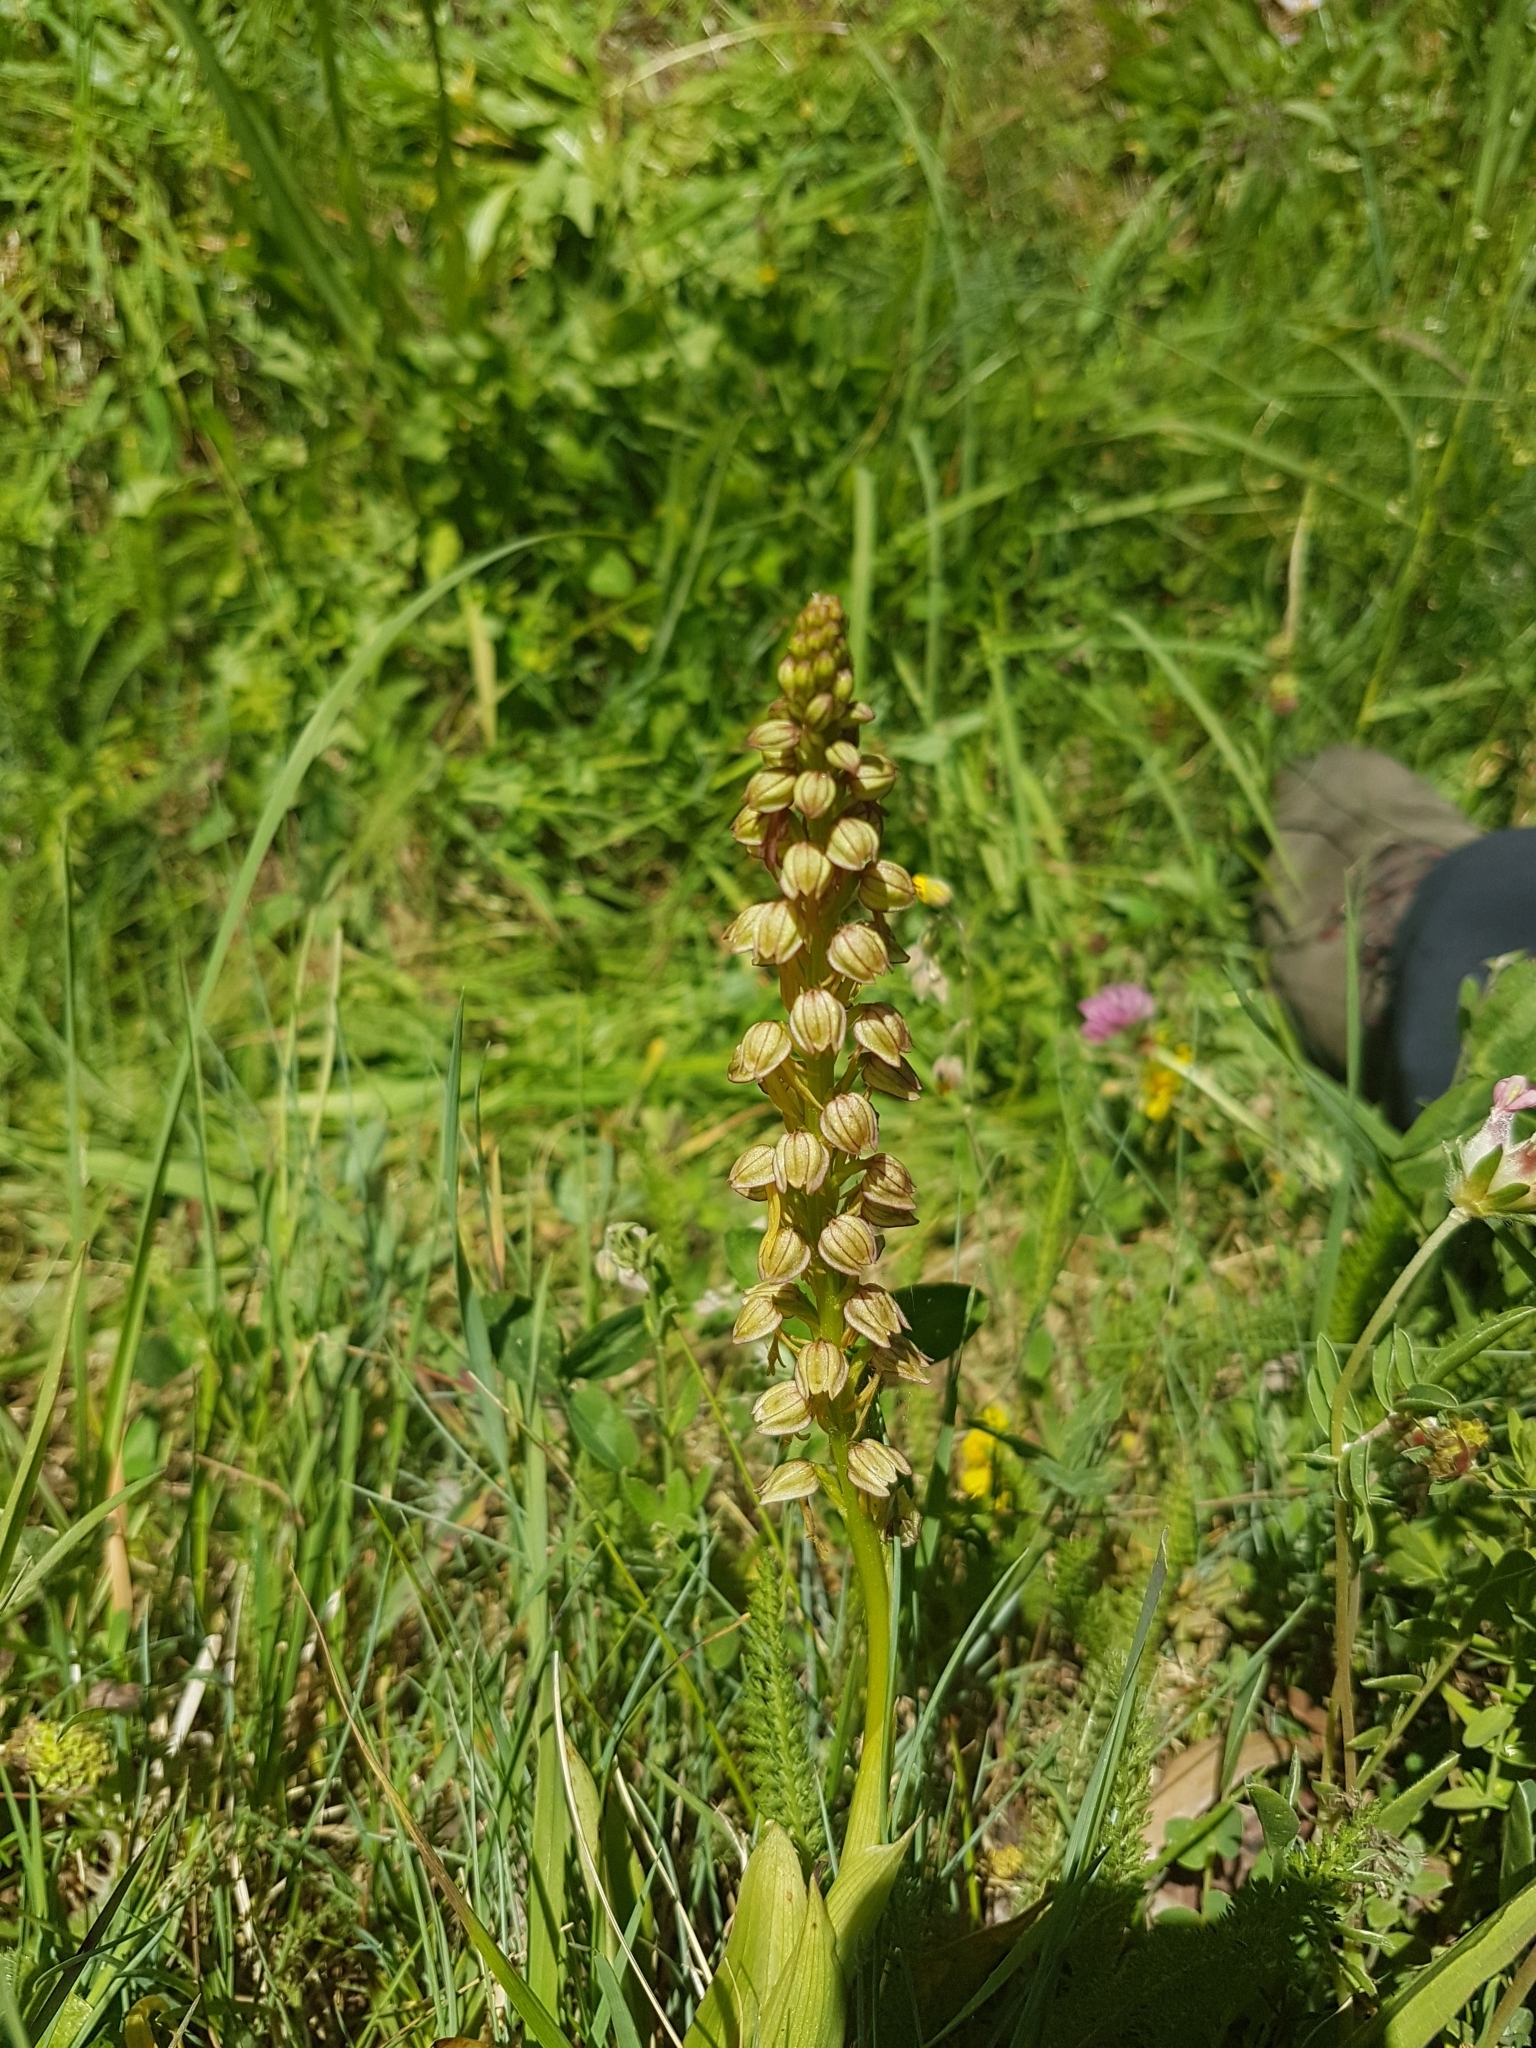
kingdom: Plantae
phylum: Tracheophyta
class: Liliopsida
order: Asparagales
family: Orchidaceae
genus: Orchis
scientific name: Orchis anthropophora
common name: Man orchid
